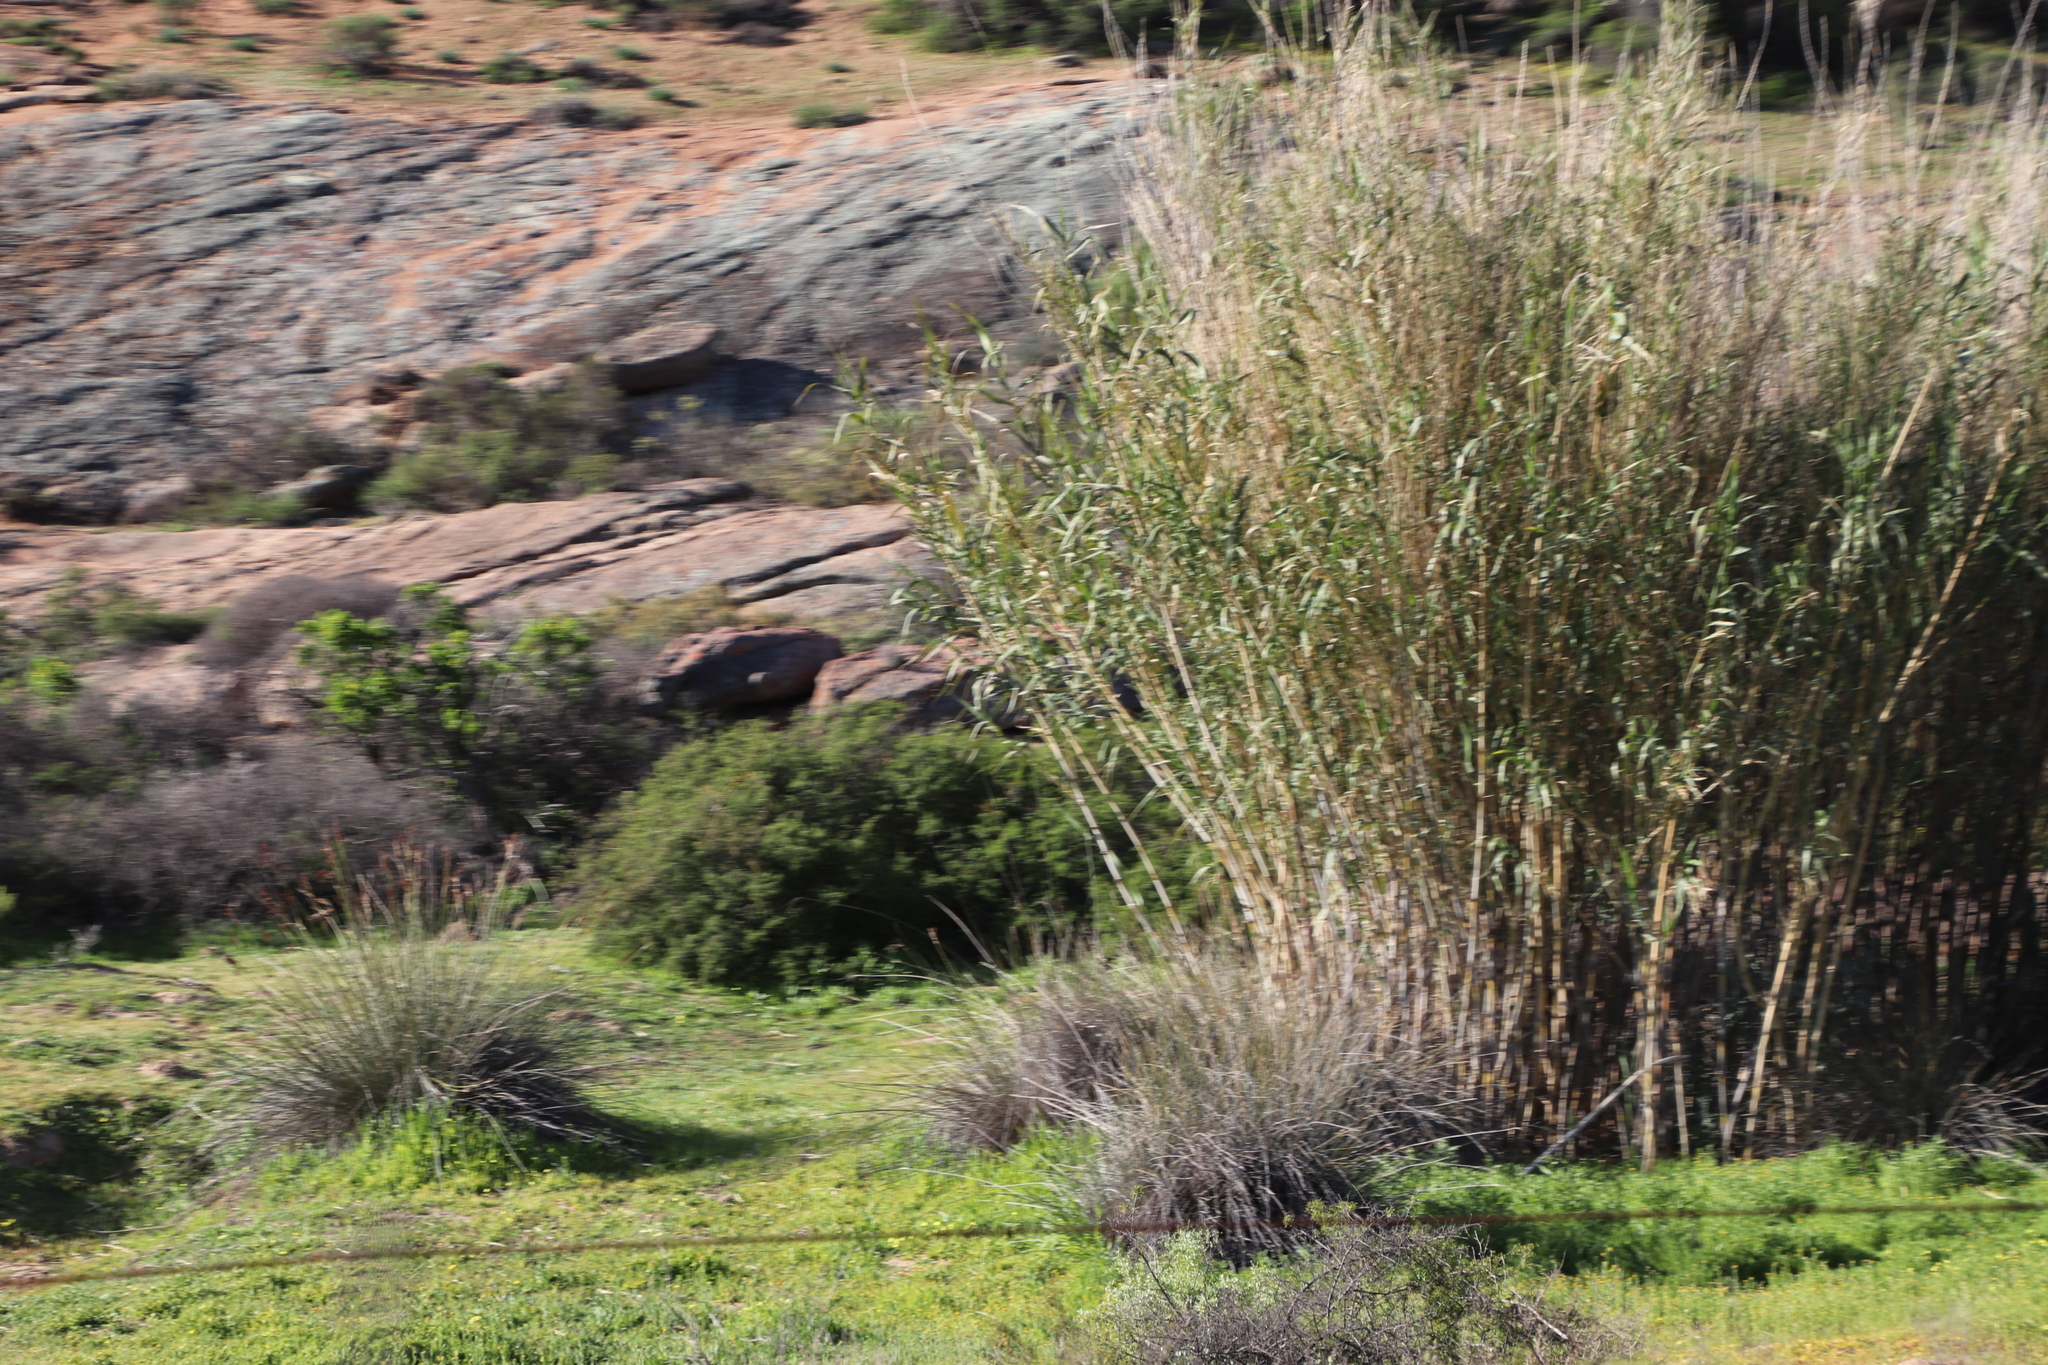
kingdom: Plantae
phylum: Tracheophyta
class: Liliopsida
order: Poales
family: Poaceae
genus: Arundo
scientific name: Arundo donax
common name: Giant reed
